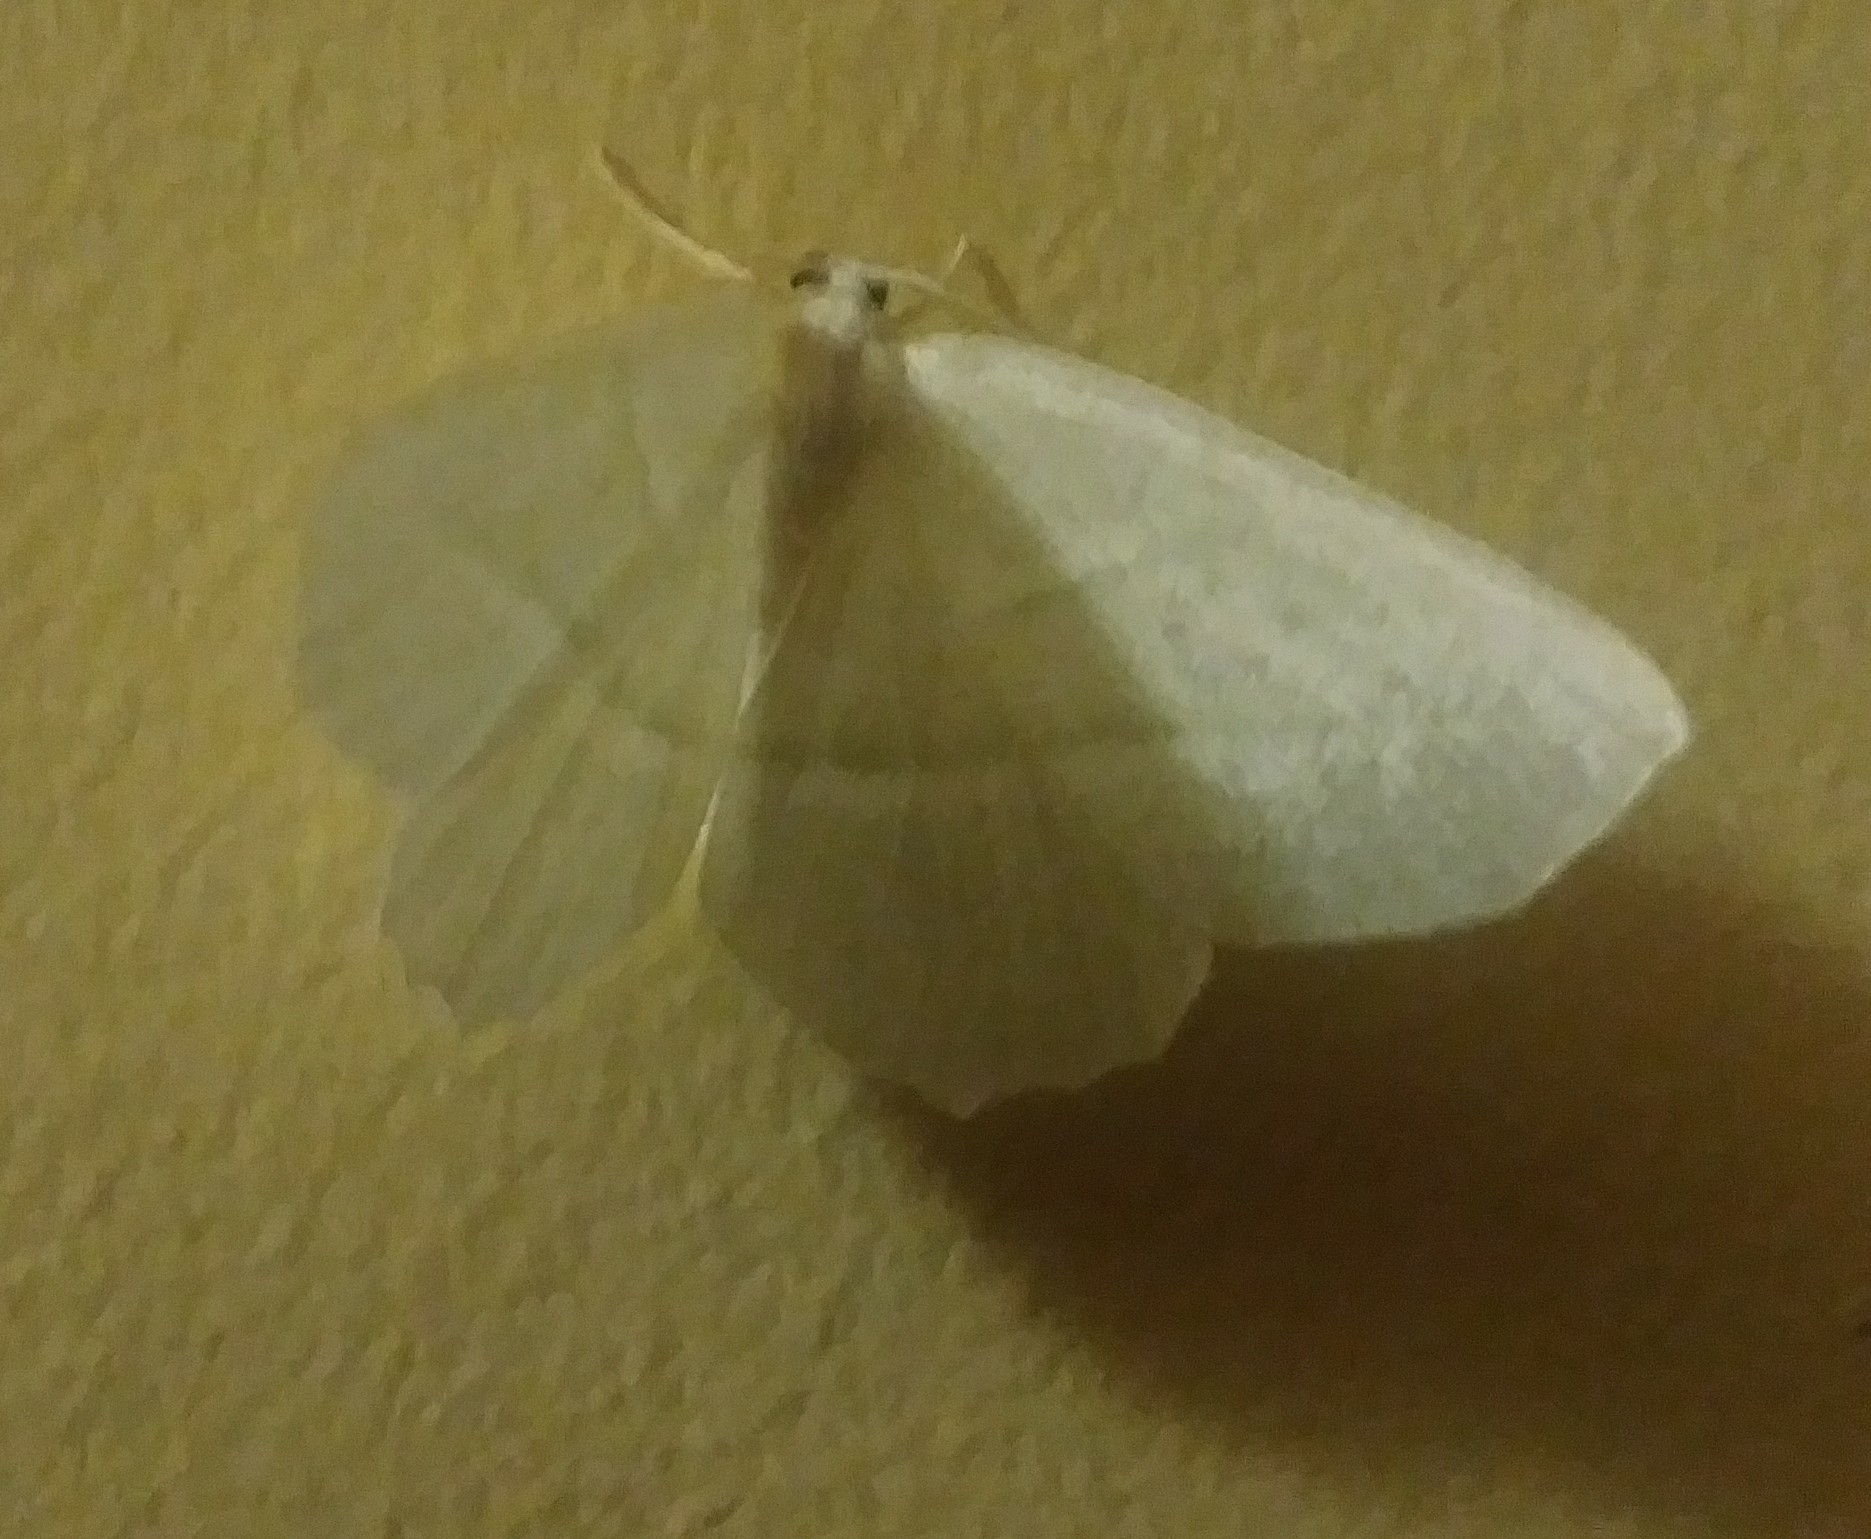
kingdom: Animalia
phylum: Arthropoda
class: Insecta
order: Lepidoptera
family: Geometridae
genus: Campaea
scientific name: Campaea perlata
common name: Fringed looper
